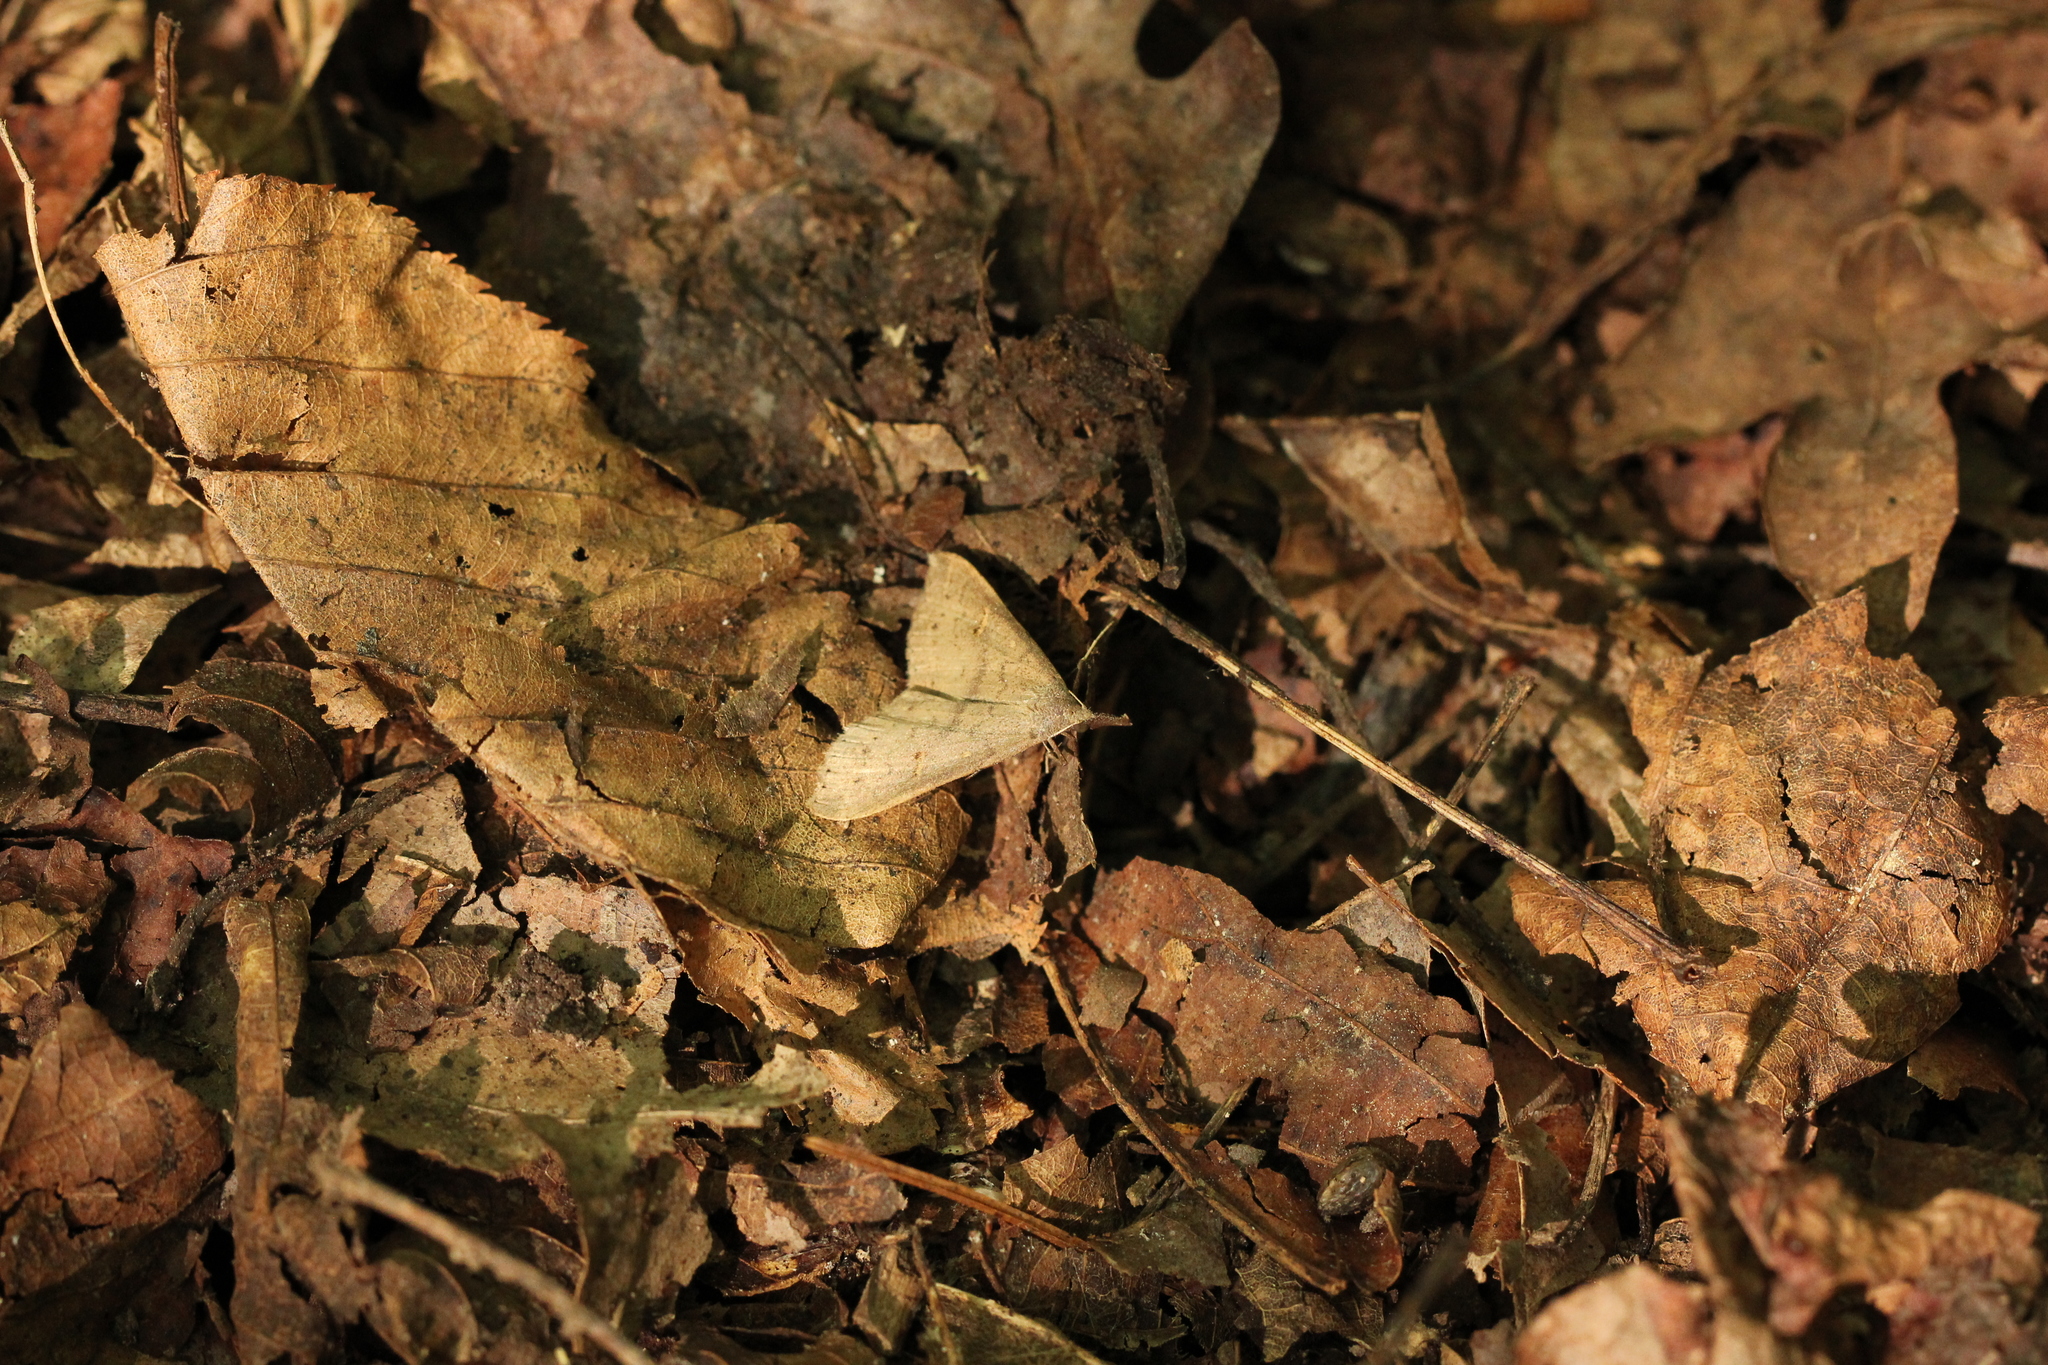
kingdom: Animalia
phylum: Arthropoda
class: Insecta
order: Lepidoptera
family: Erebidae
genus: Renia
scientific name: Renia adspergillus
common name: Speckled renia moth
